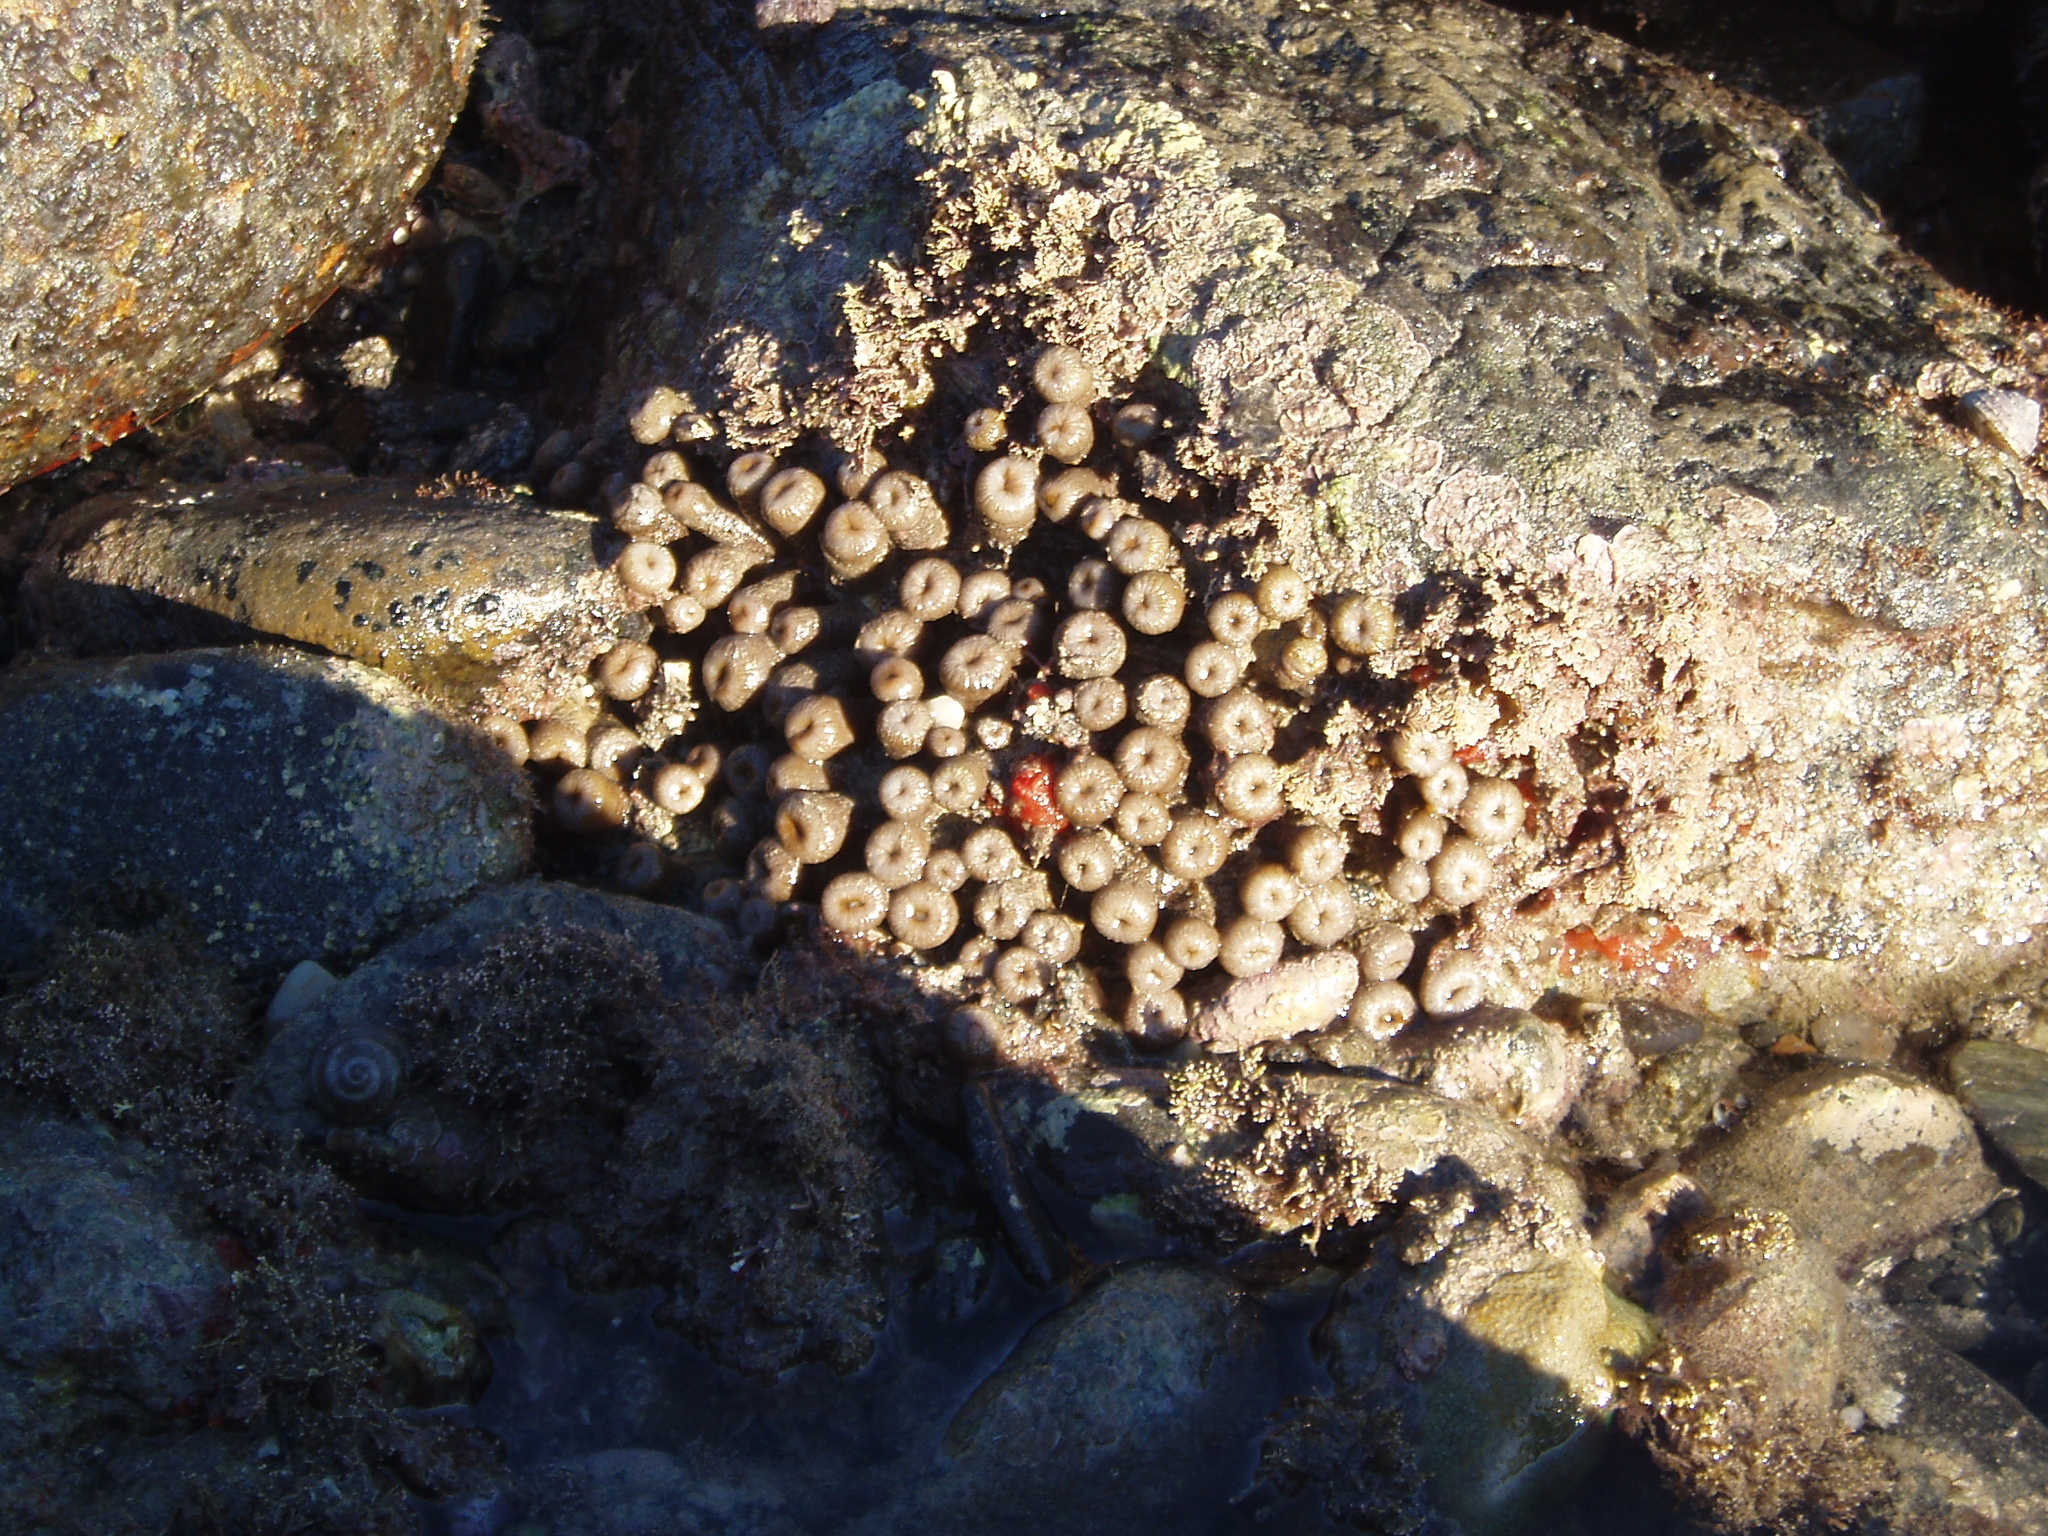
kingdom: Animalia
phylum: Cnidaria
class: Anthozoa
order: Zoantharia
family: Sphenopidae
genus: Palythoa
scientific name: Palythoa mutuki
